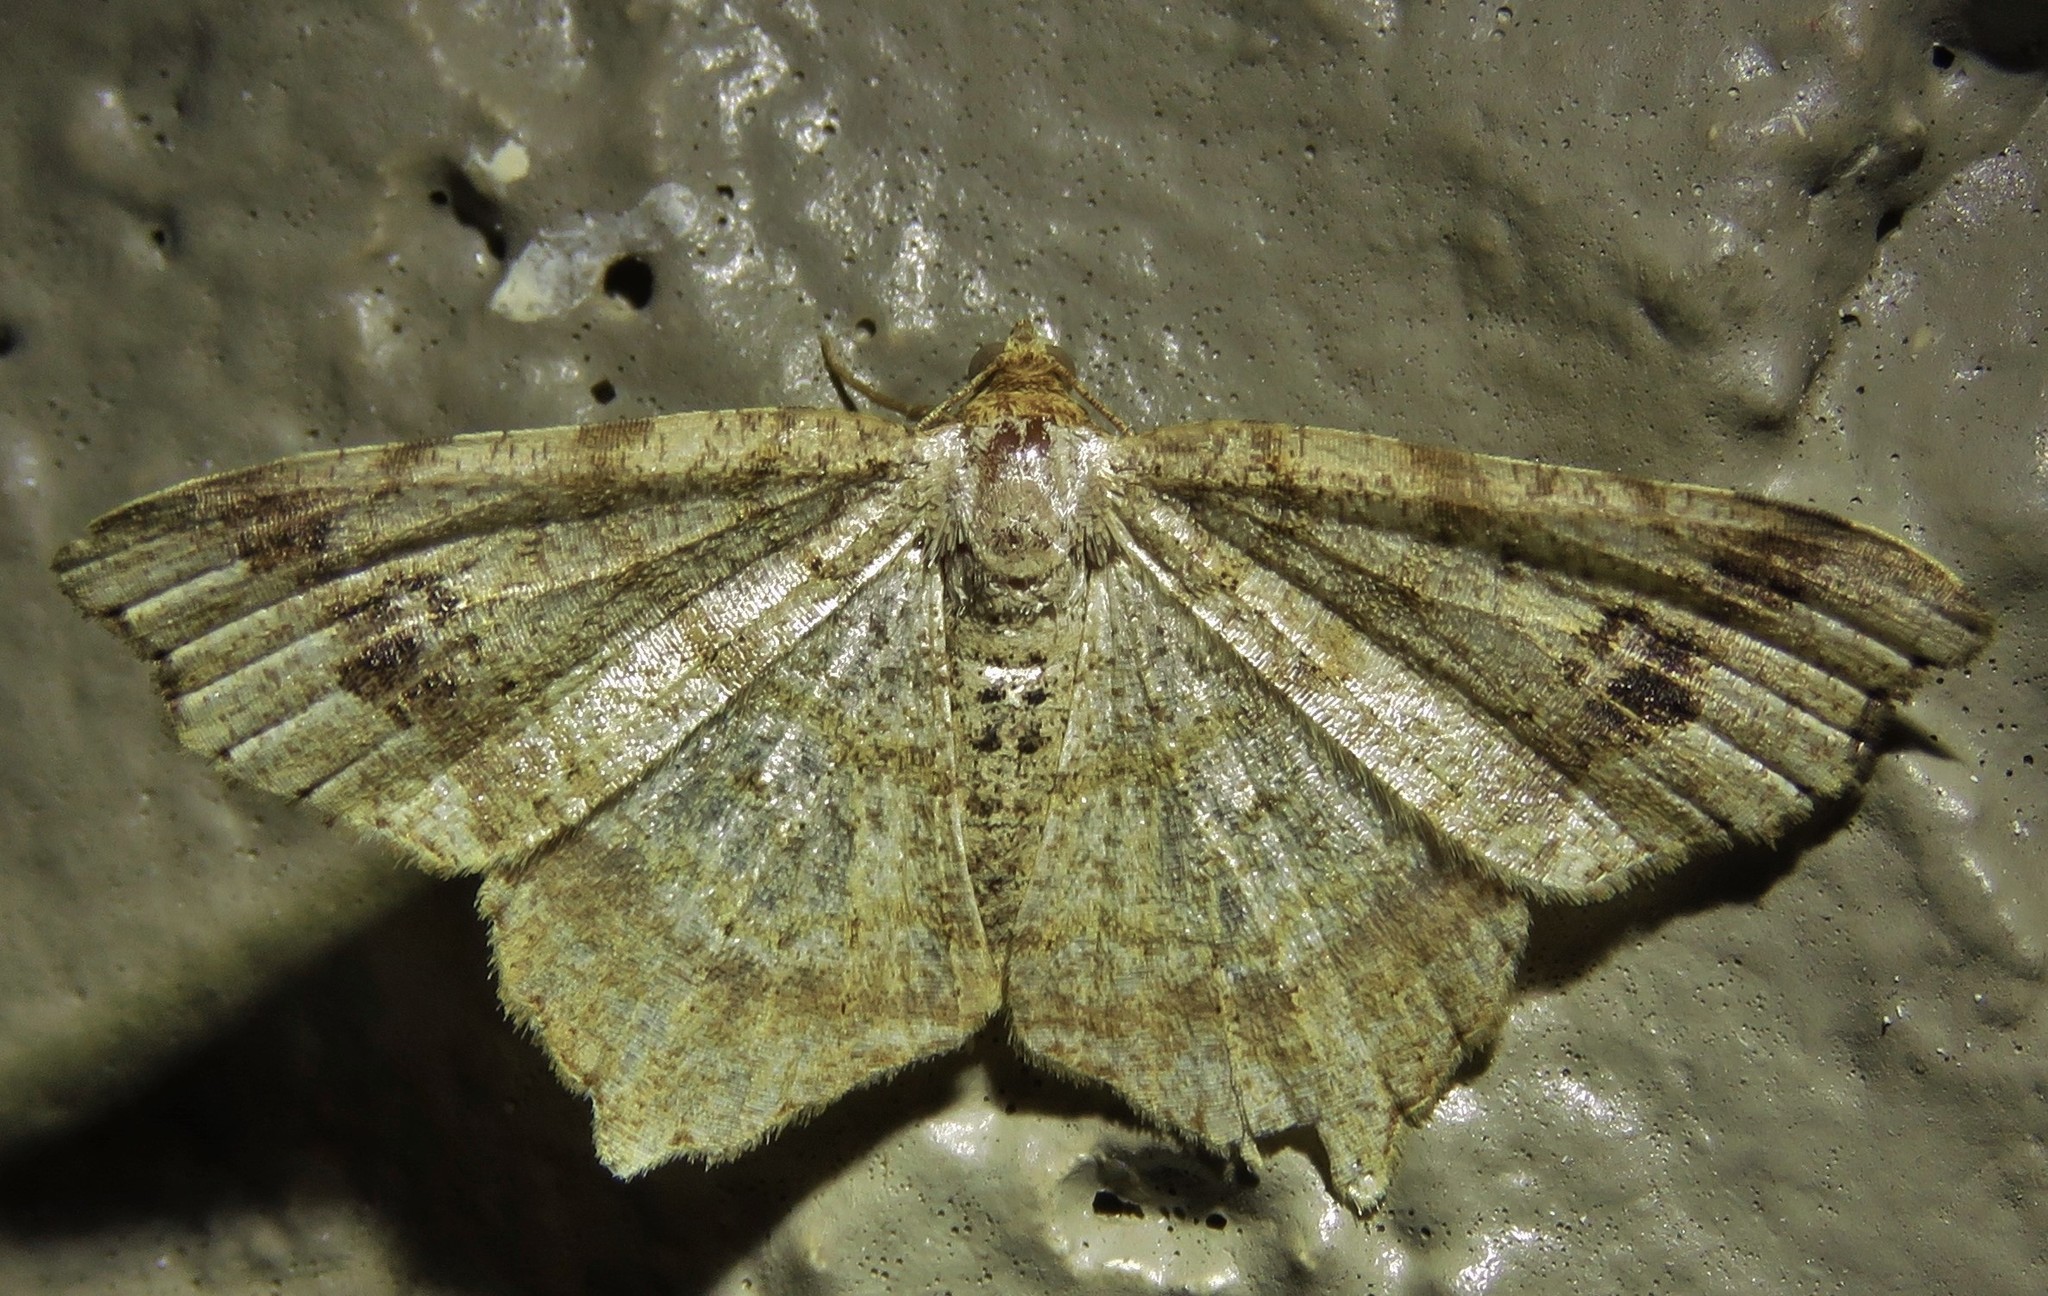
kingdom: Animalia
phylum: Arthropoda
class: Insecta
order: Lepidoptera
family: Geometridae
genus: Macaria
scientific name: Macaria aemulataria
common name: Common angle
